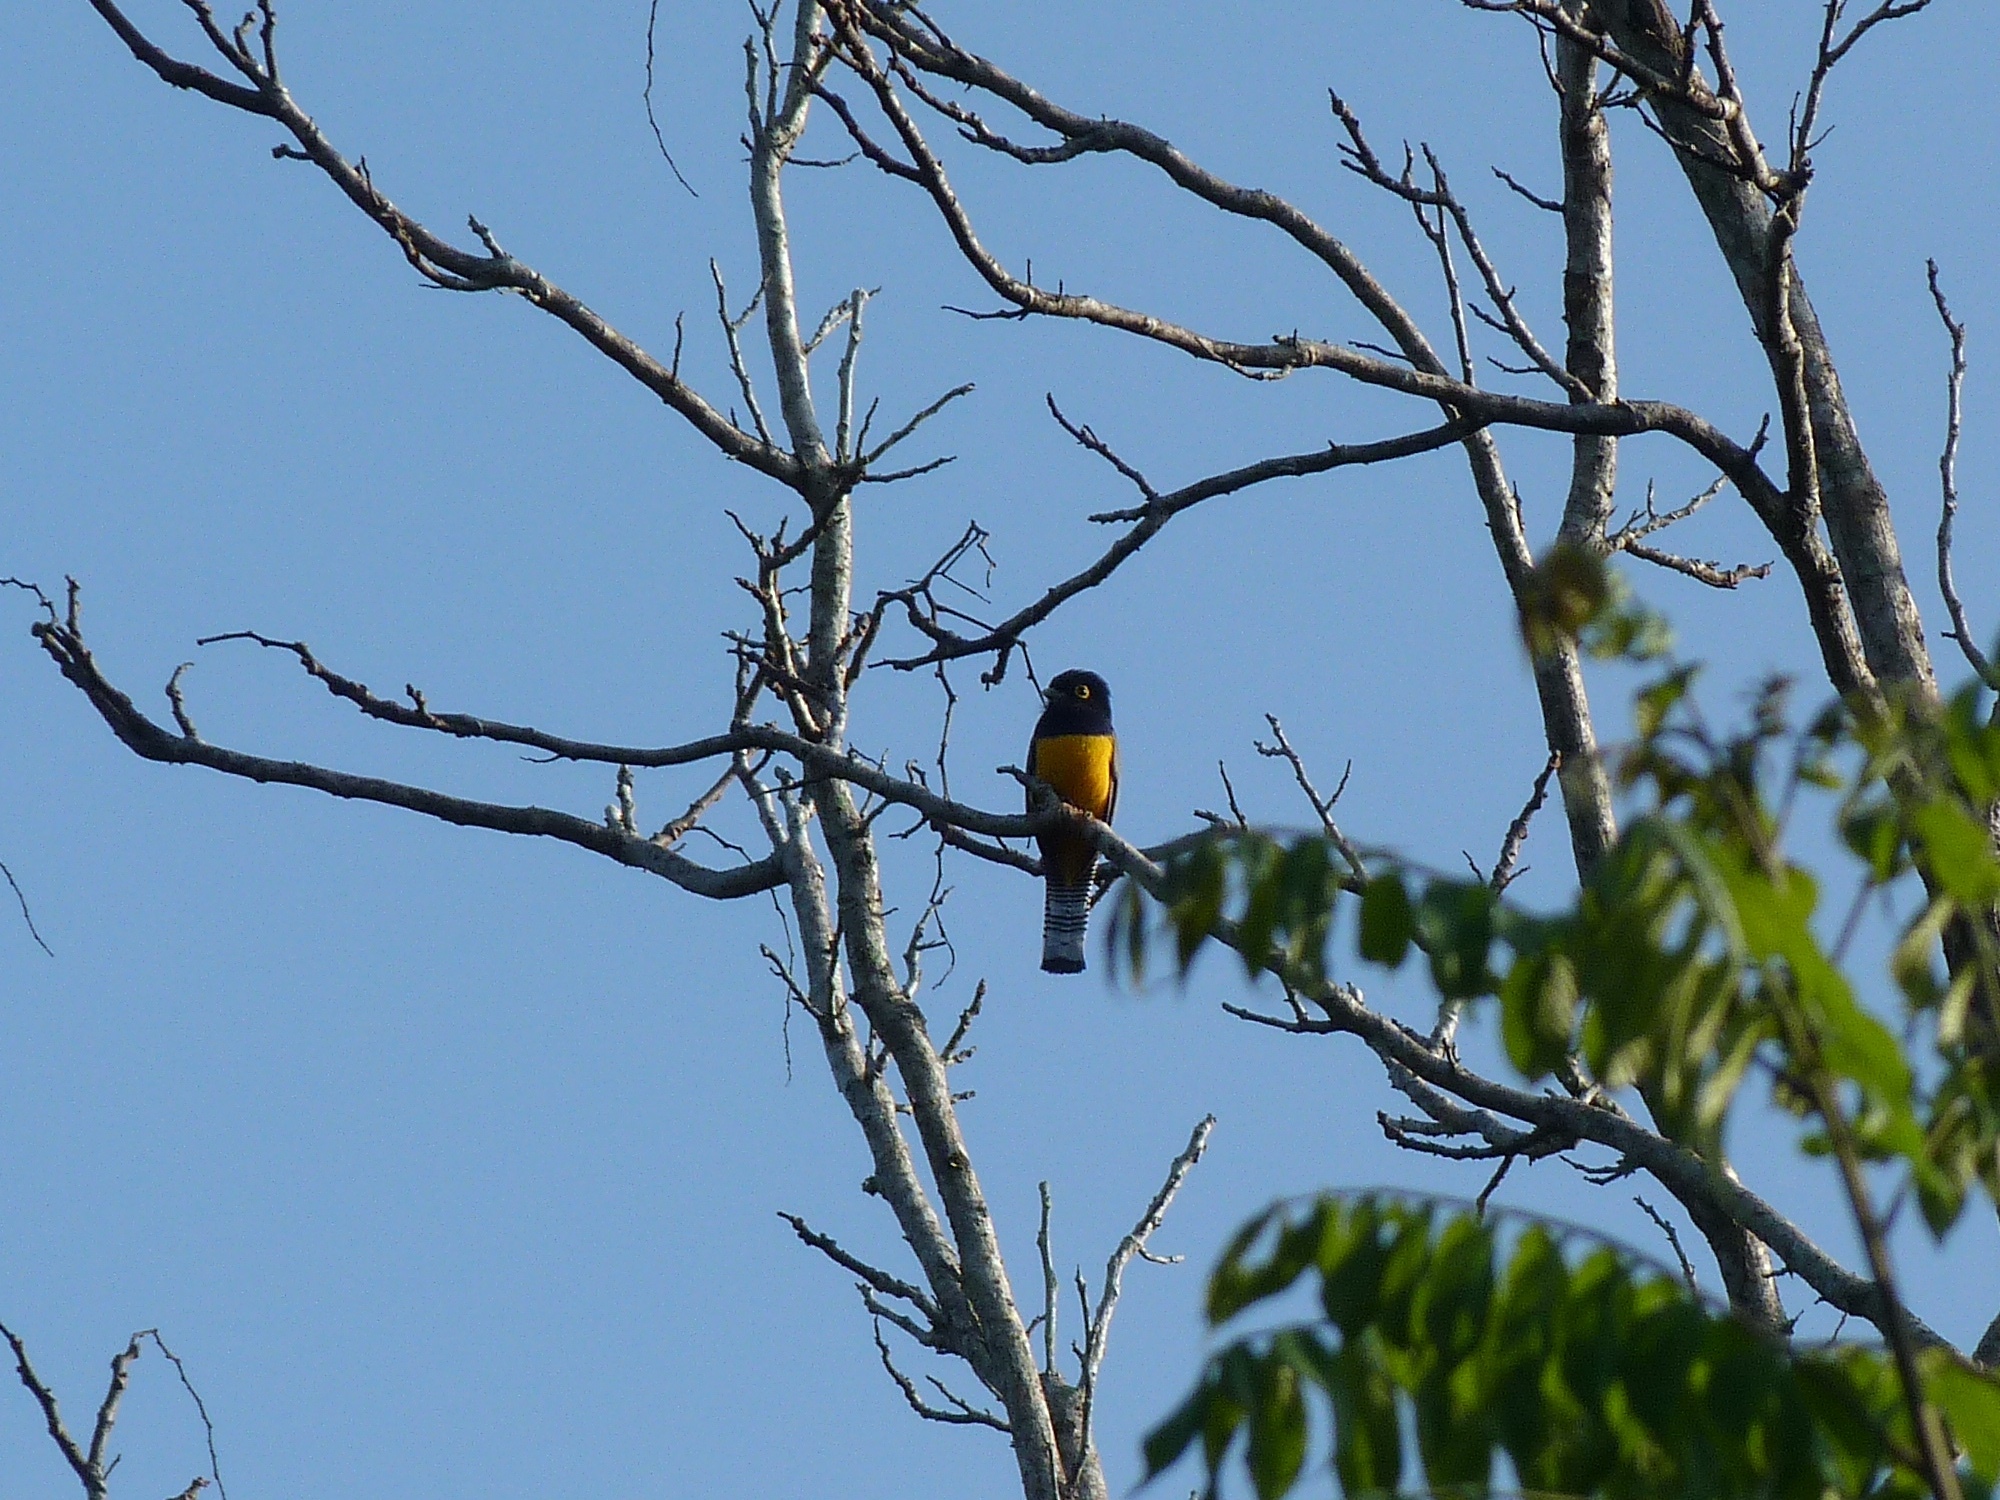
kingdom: Animalia
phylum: Chordata
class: Aves
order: Trogoniformes
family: Trogonidae
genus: Trogon
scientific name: Trogon caligatus
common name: Gartered trogon
